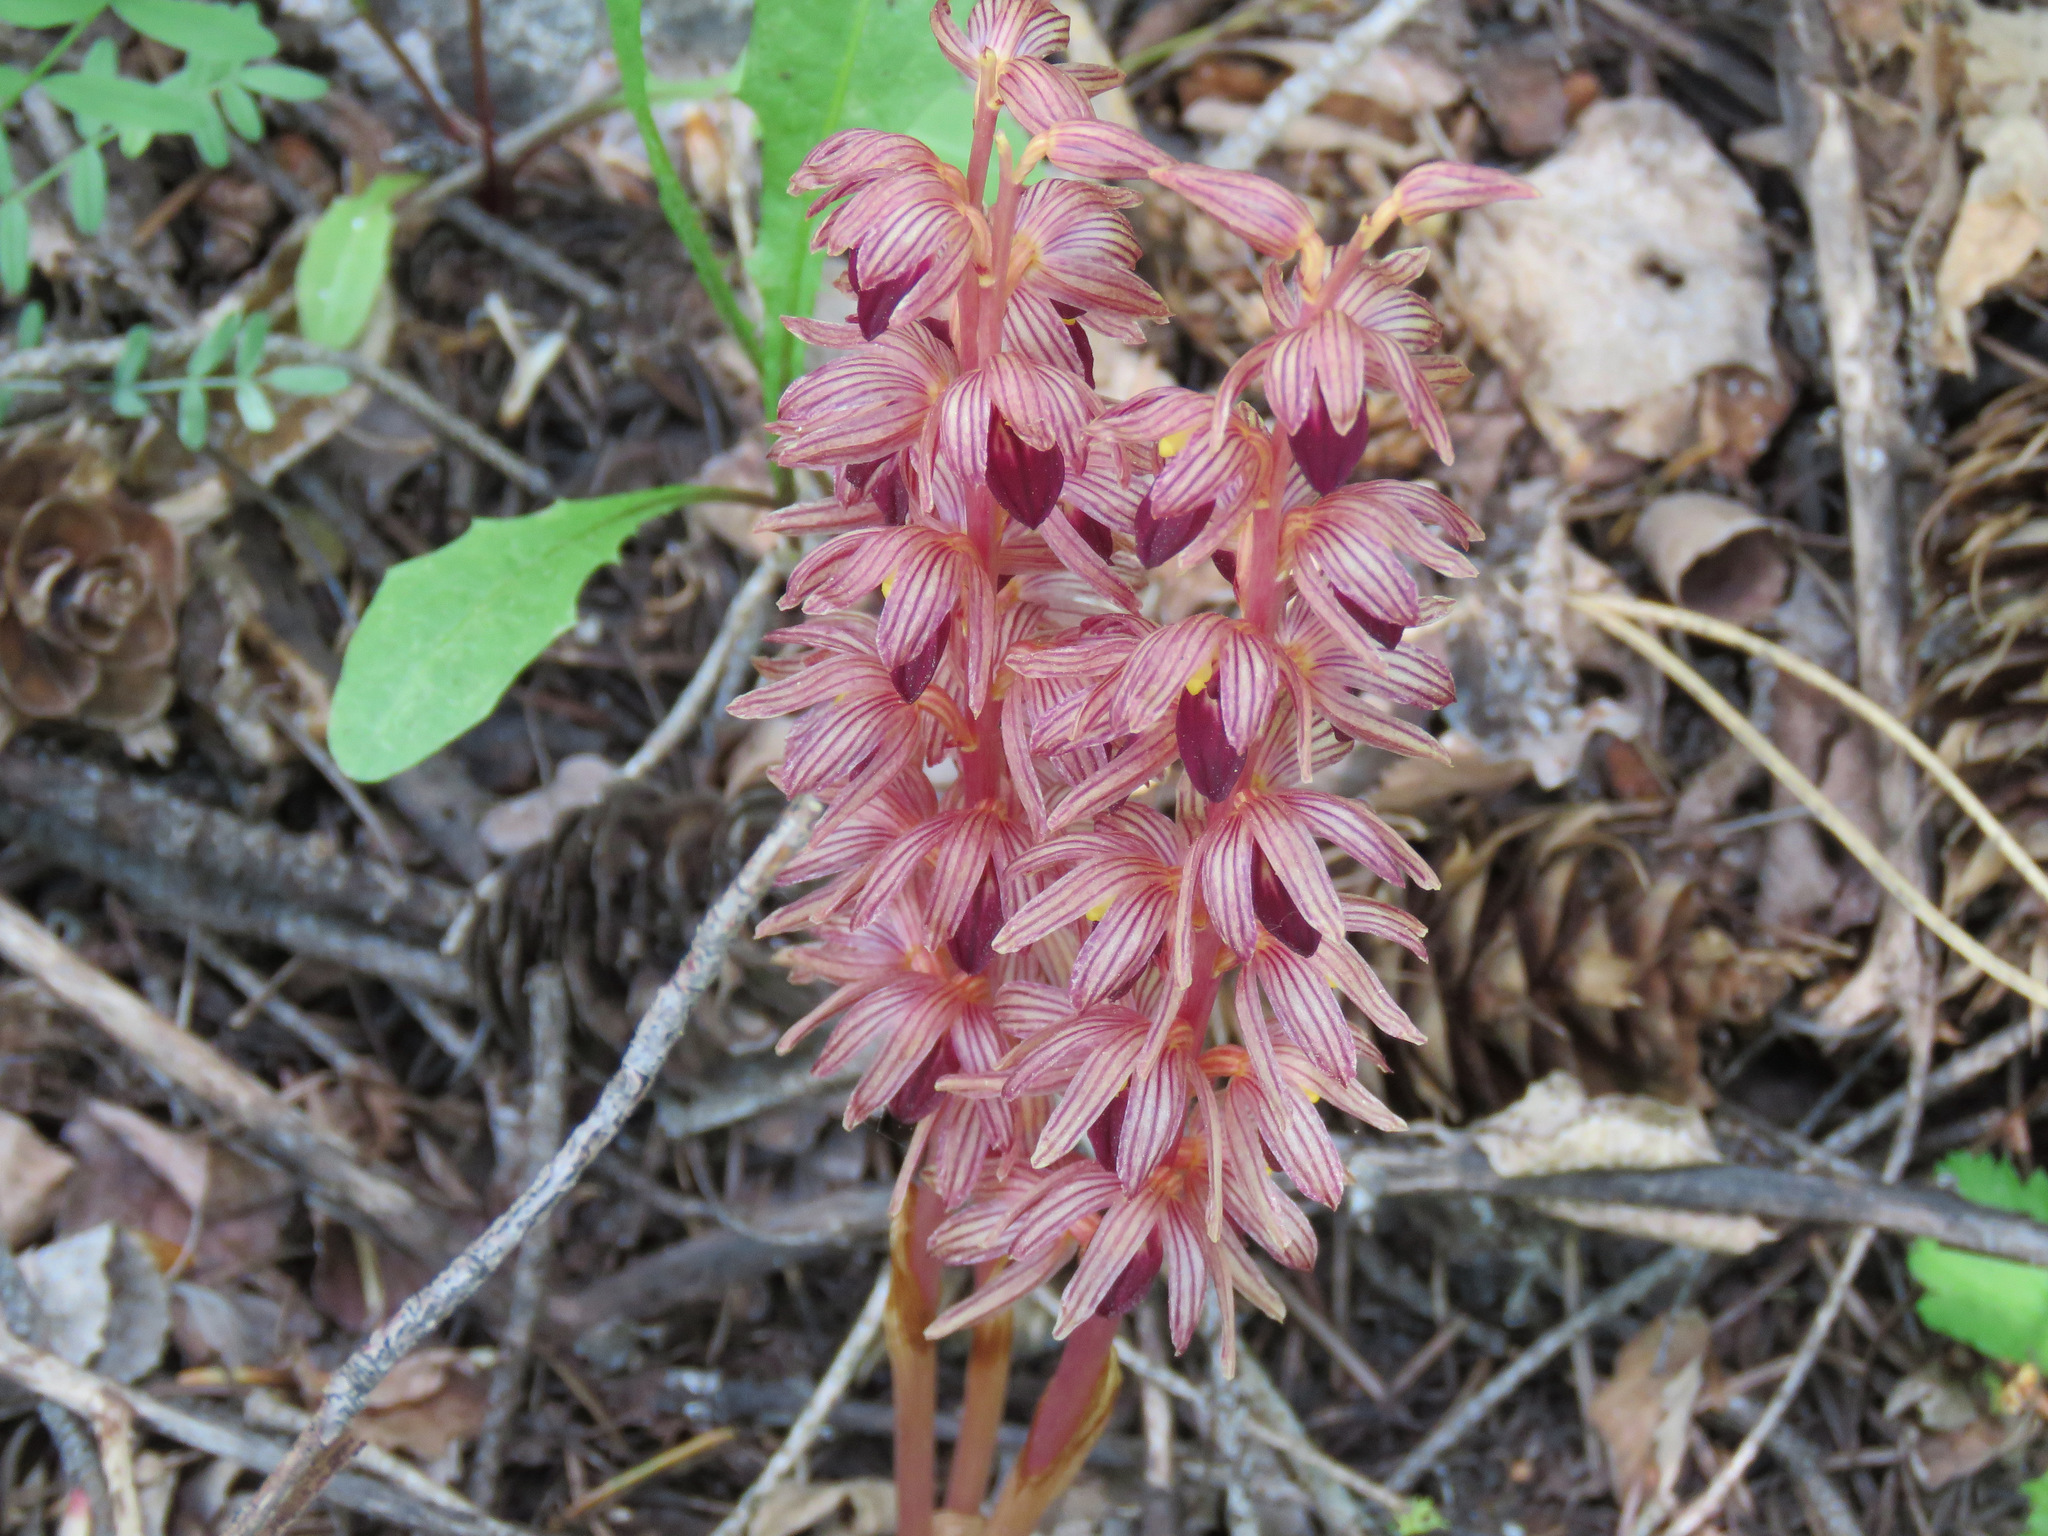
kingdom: Plantae
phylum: Tracheophyta
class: Liliopsida
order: Asparagales
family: Orchidaceae
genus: Corallorhiza
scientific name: Corallorhiza striata
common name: Hooded coralroot
